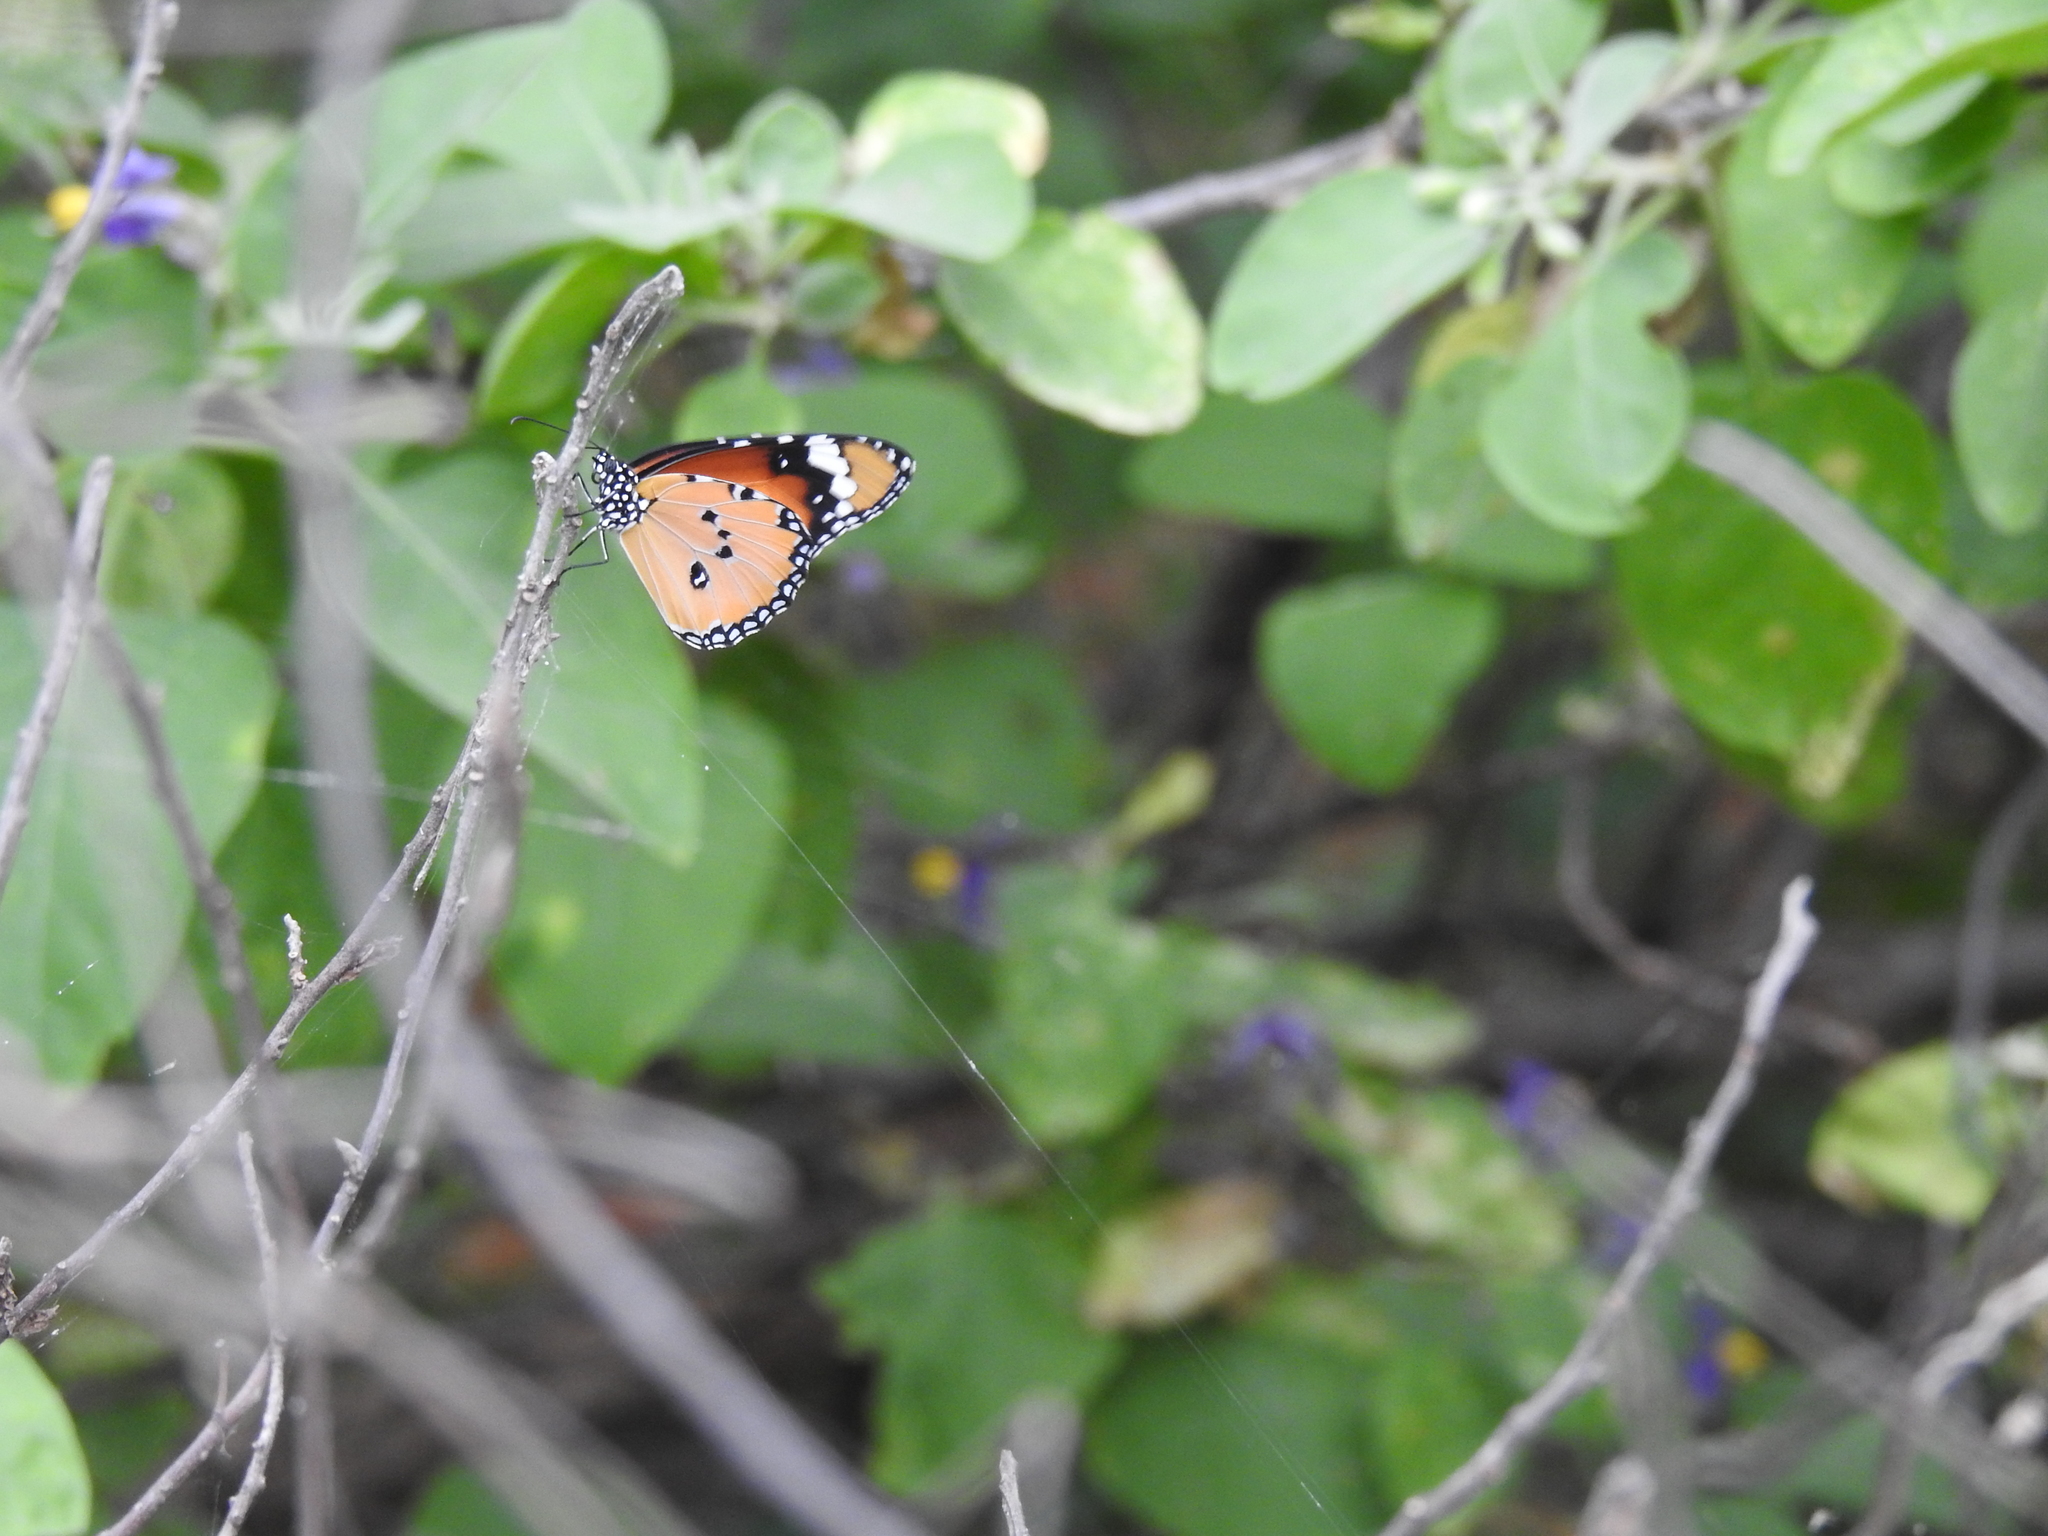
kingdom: Animalia
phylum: Arthropoda
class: Insecta
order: Lepidoptera
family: Nymphalidae
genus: Danaus
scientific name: Danaus chrysippus
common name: Plain tiger
